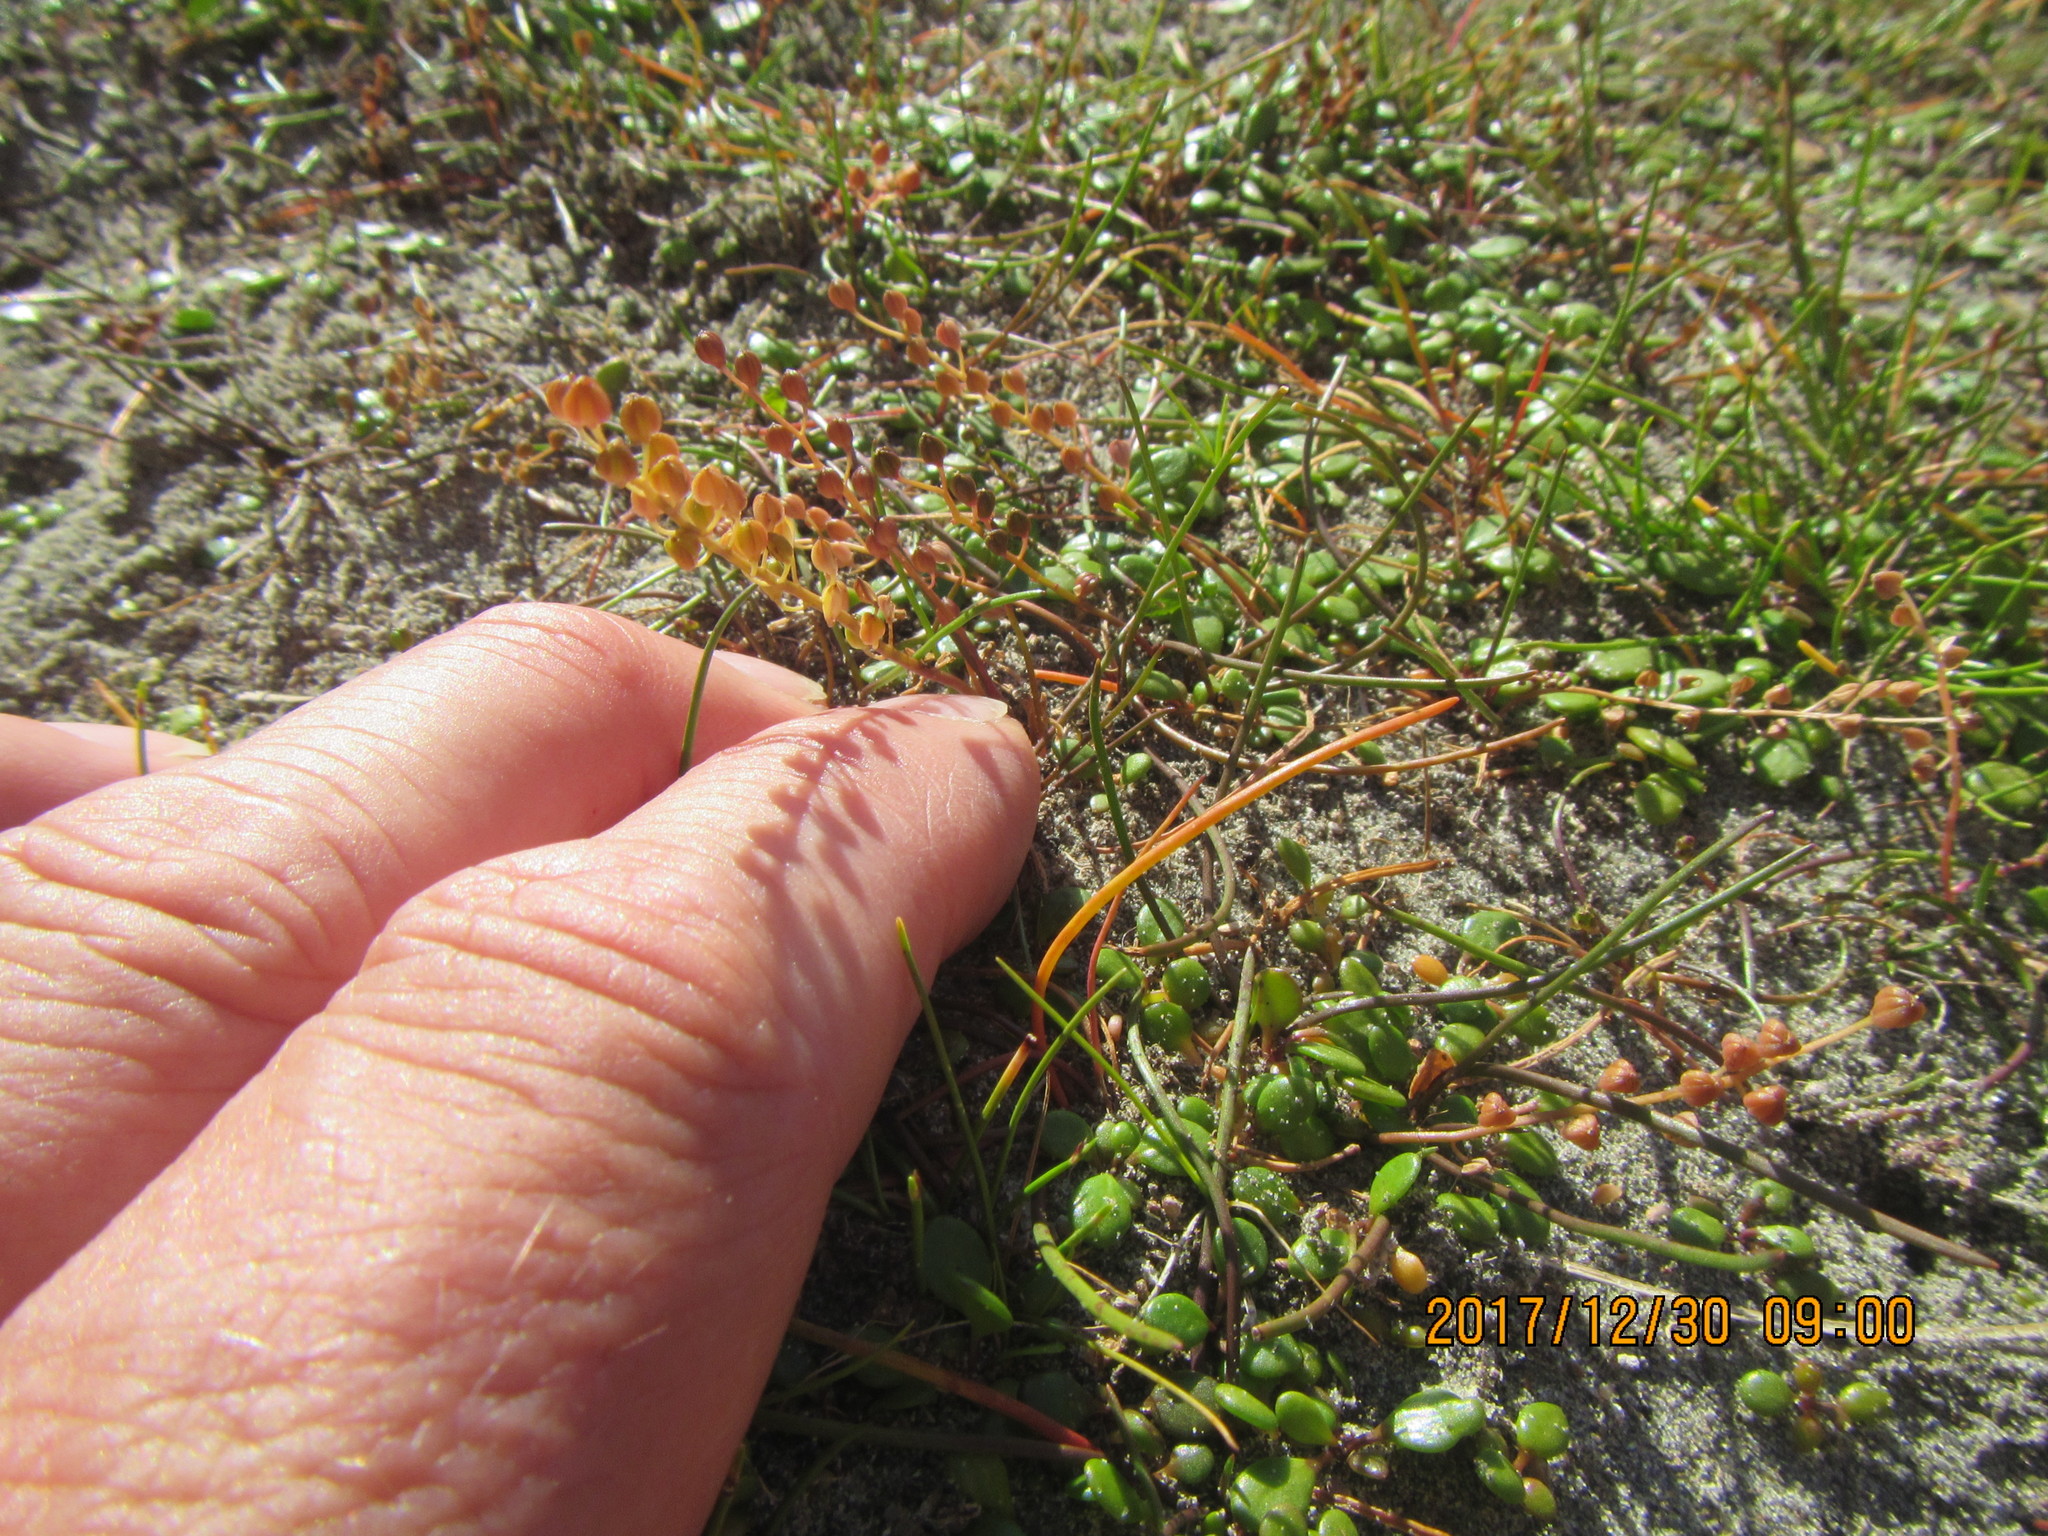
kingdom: Plantae
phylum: Tracheophyta
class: Liliopsida
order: Alismatales
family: Juncaginaceae
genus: Triglochin
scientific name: Triglochin striata
